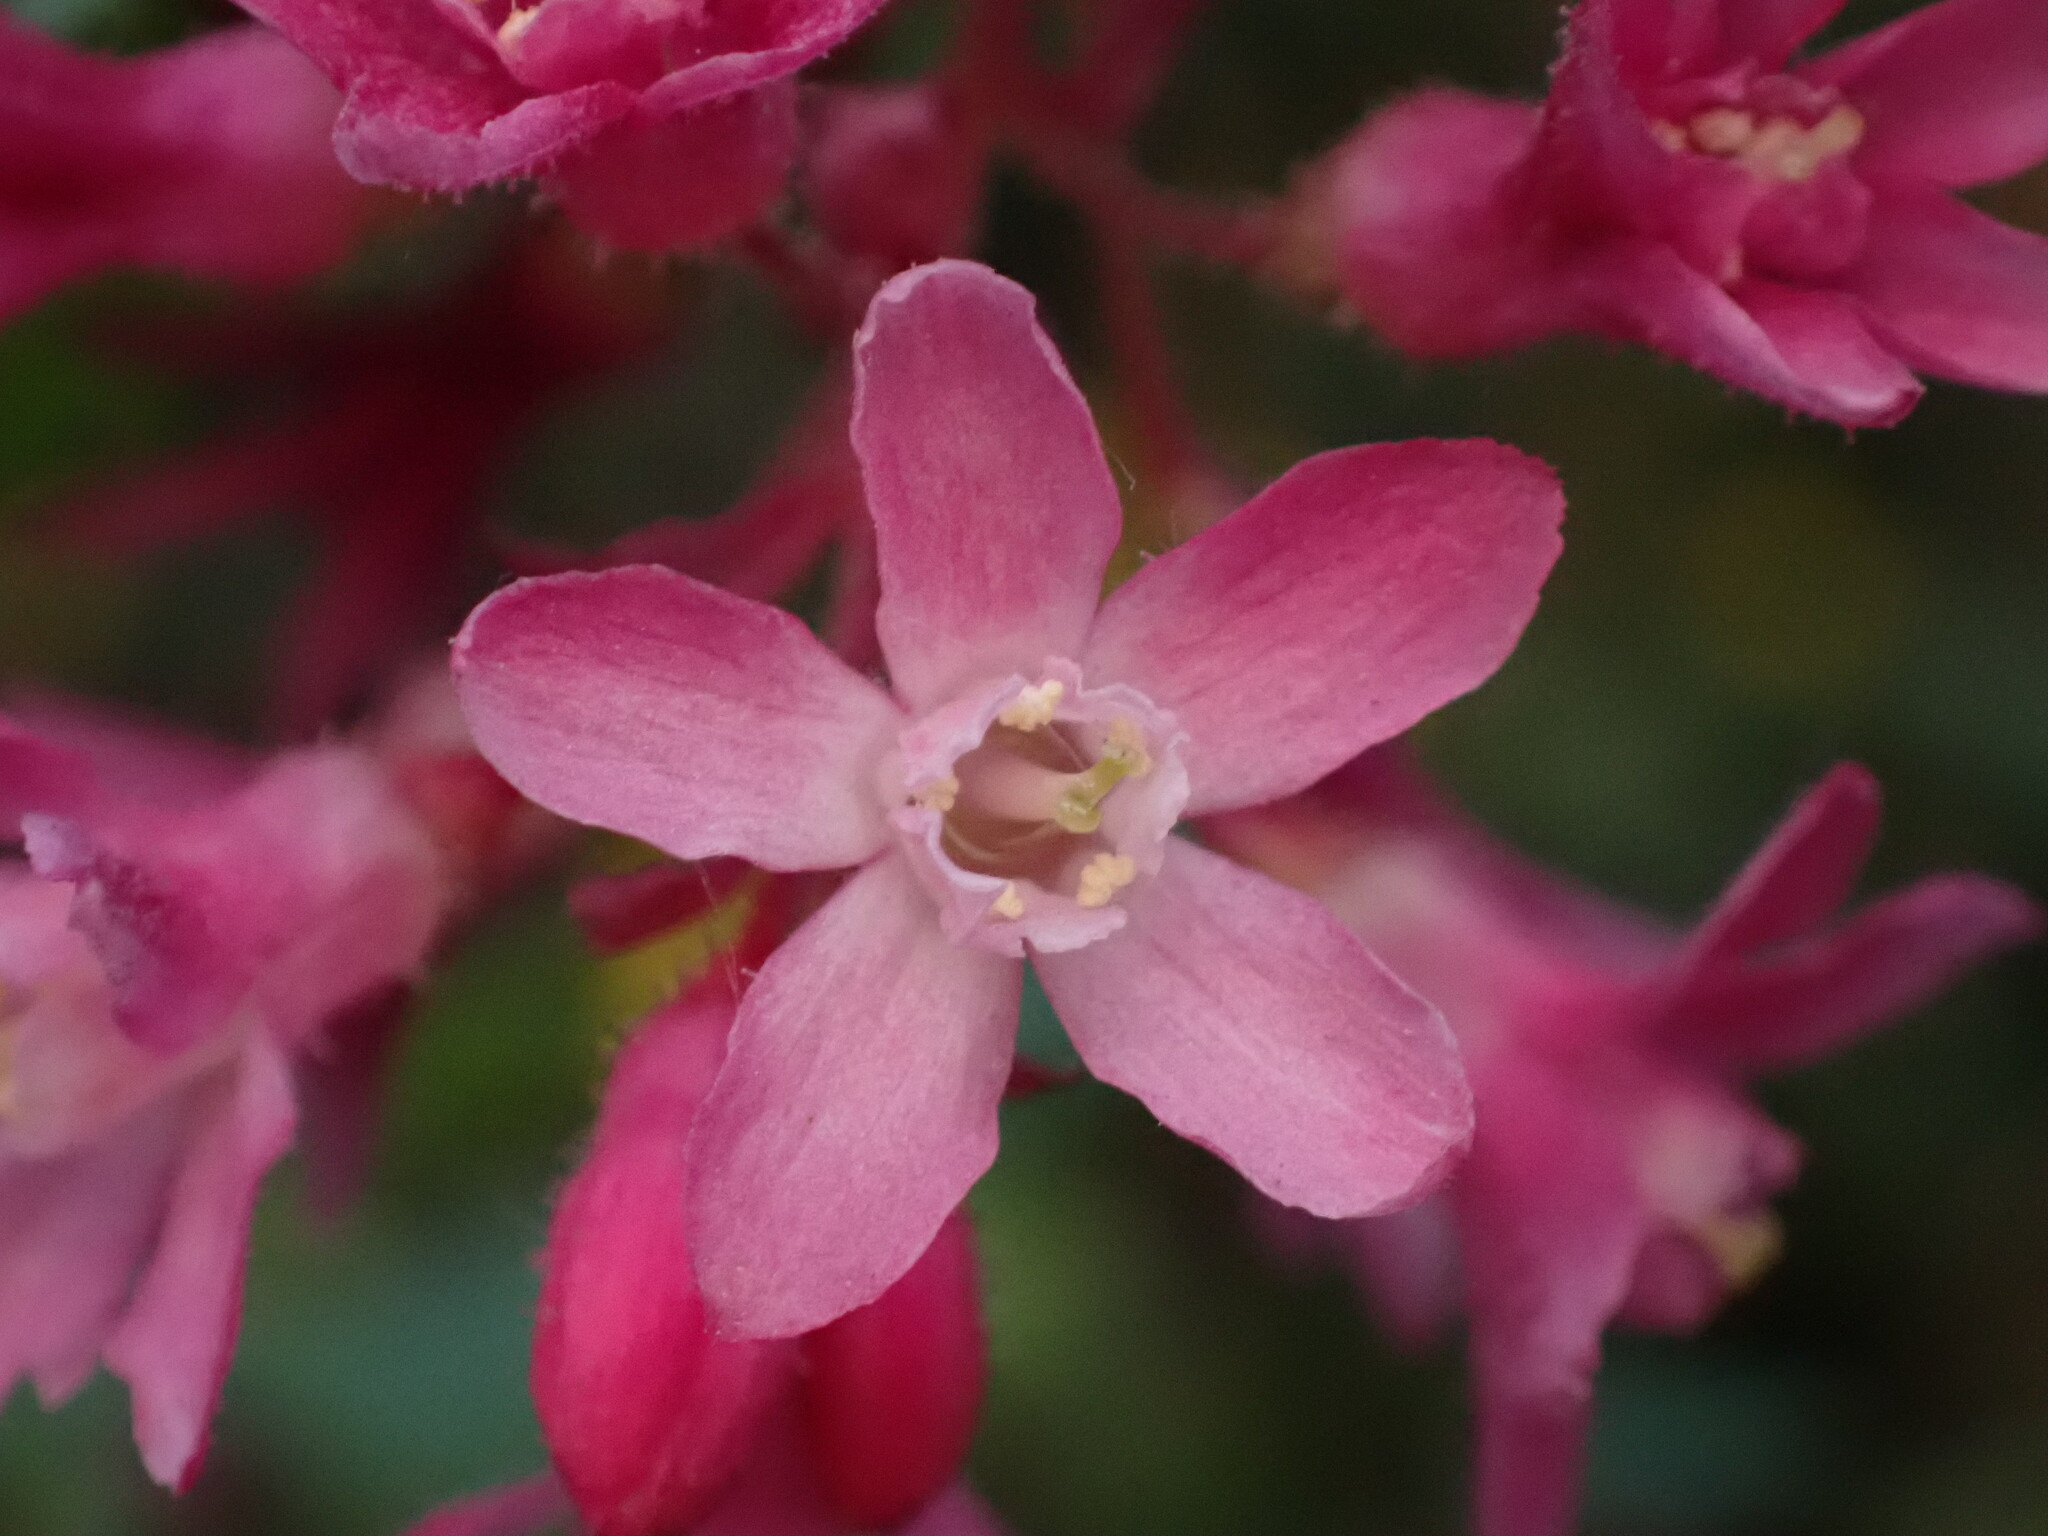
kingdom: Plantae
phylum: Tracheophyta
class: Magnoliopsida
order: Saxifragales
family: Grossulariaceae
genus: Ribes
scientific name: Ribes sanguineum
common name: Flowering currant
